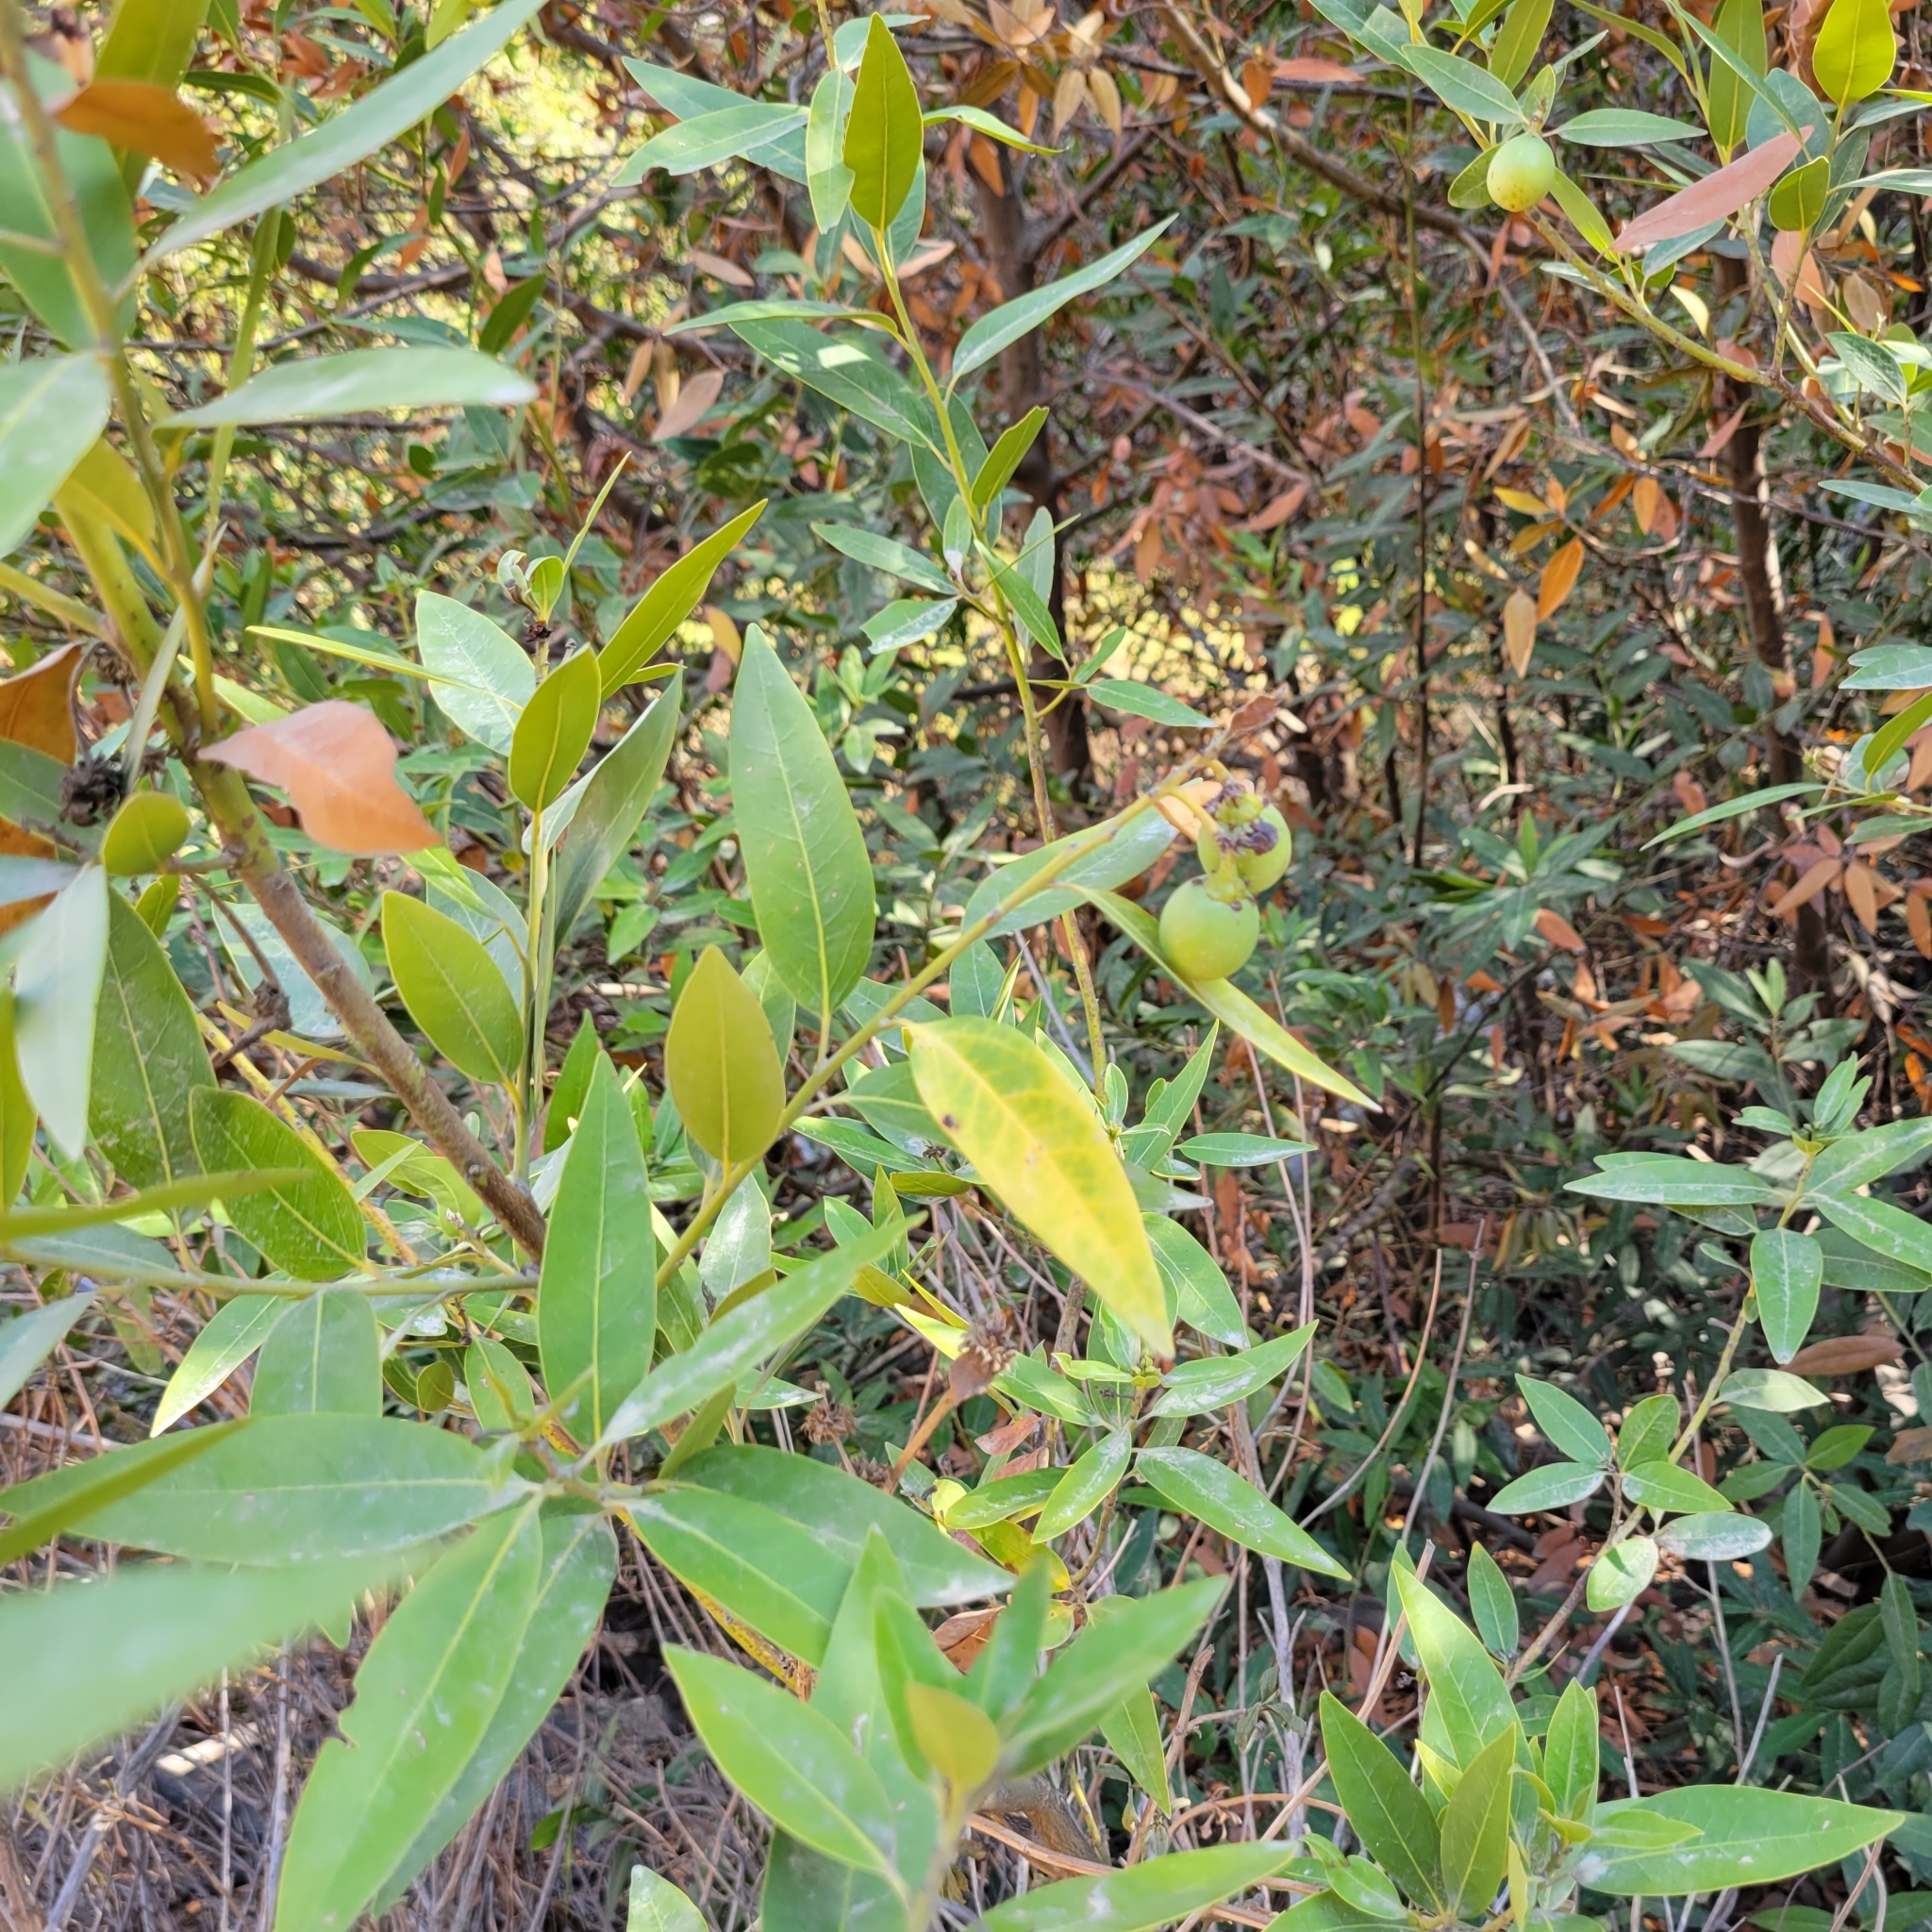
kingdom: Plantae
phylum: Tracheophyta
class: Magnoliopsida
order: Laurales
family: Lauraceae
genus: Umbellularia
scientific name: Umbellularia californica
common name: California bay
